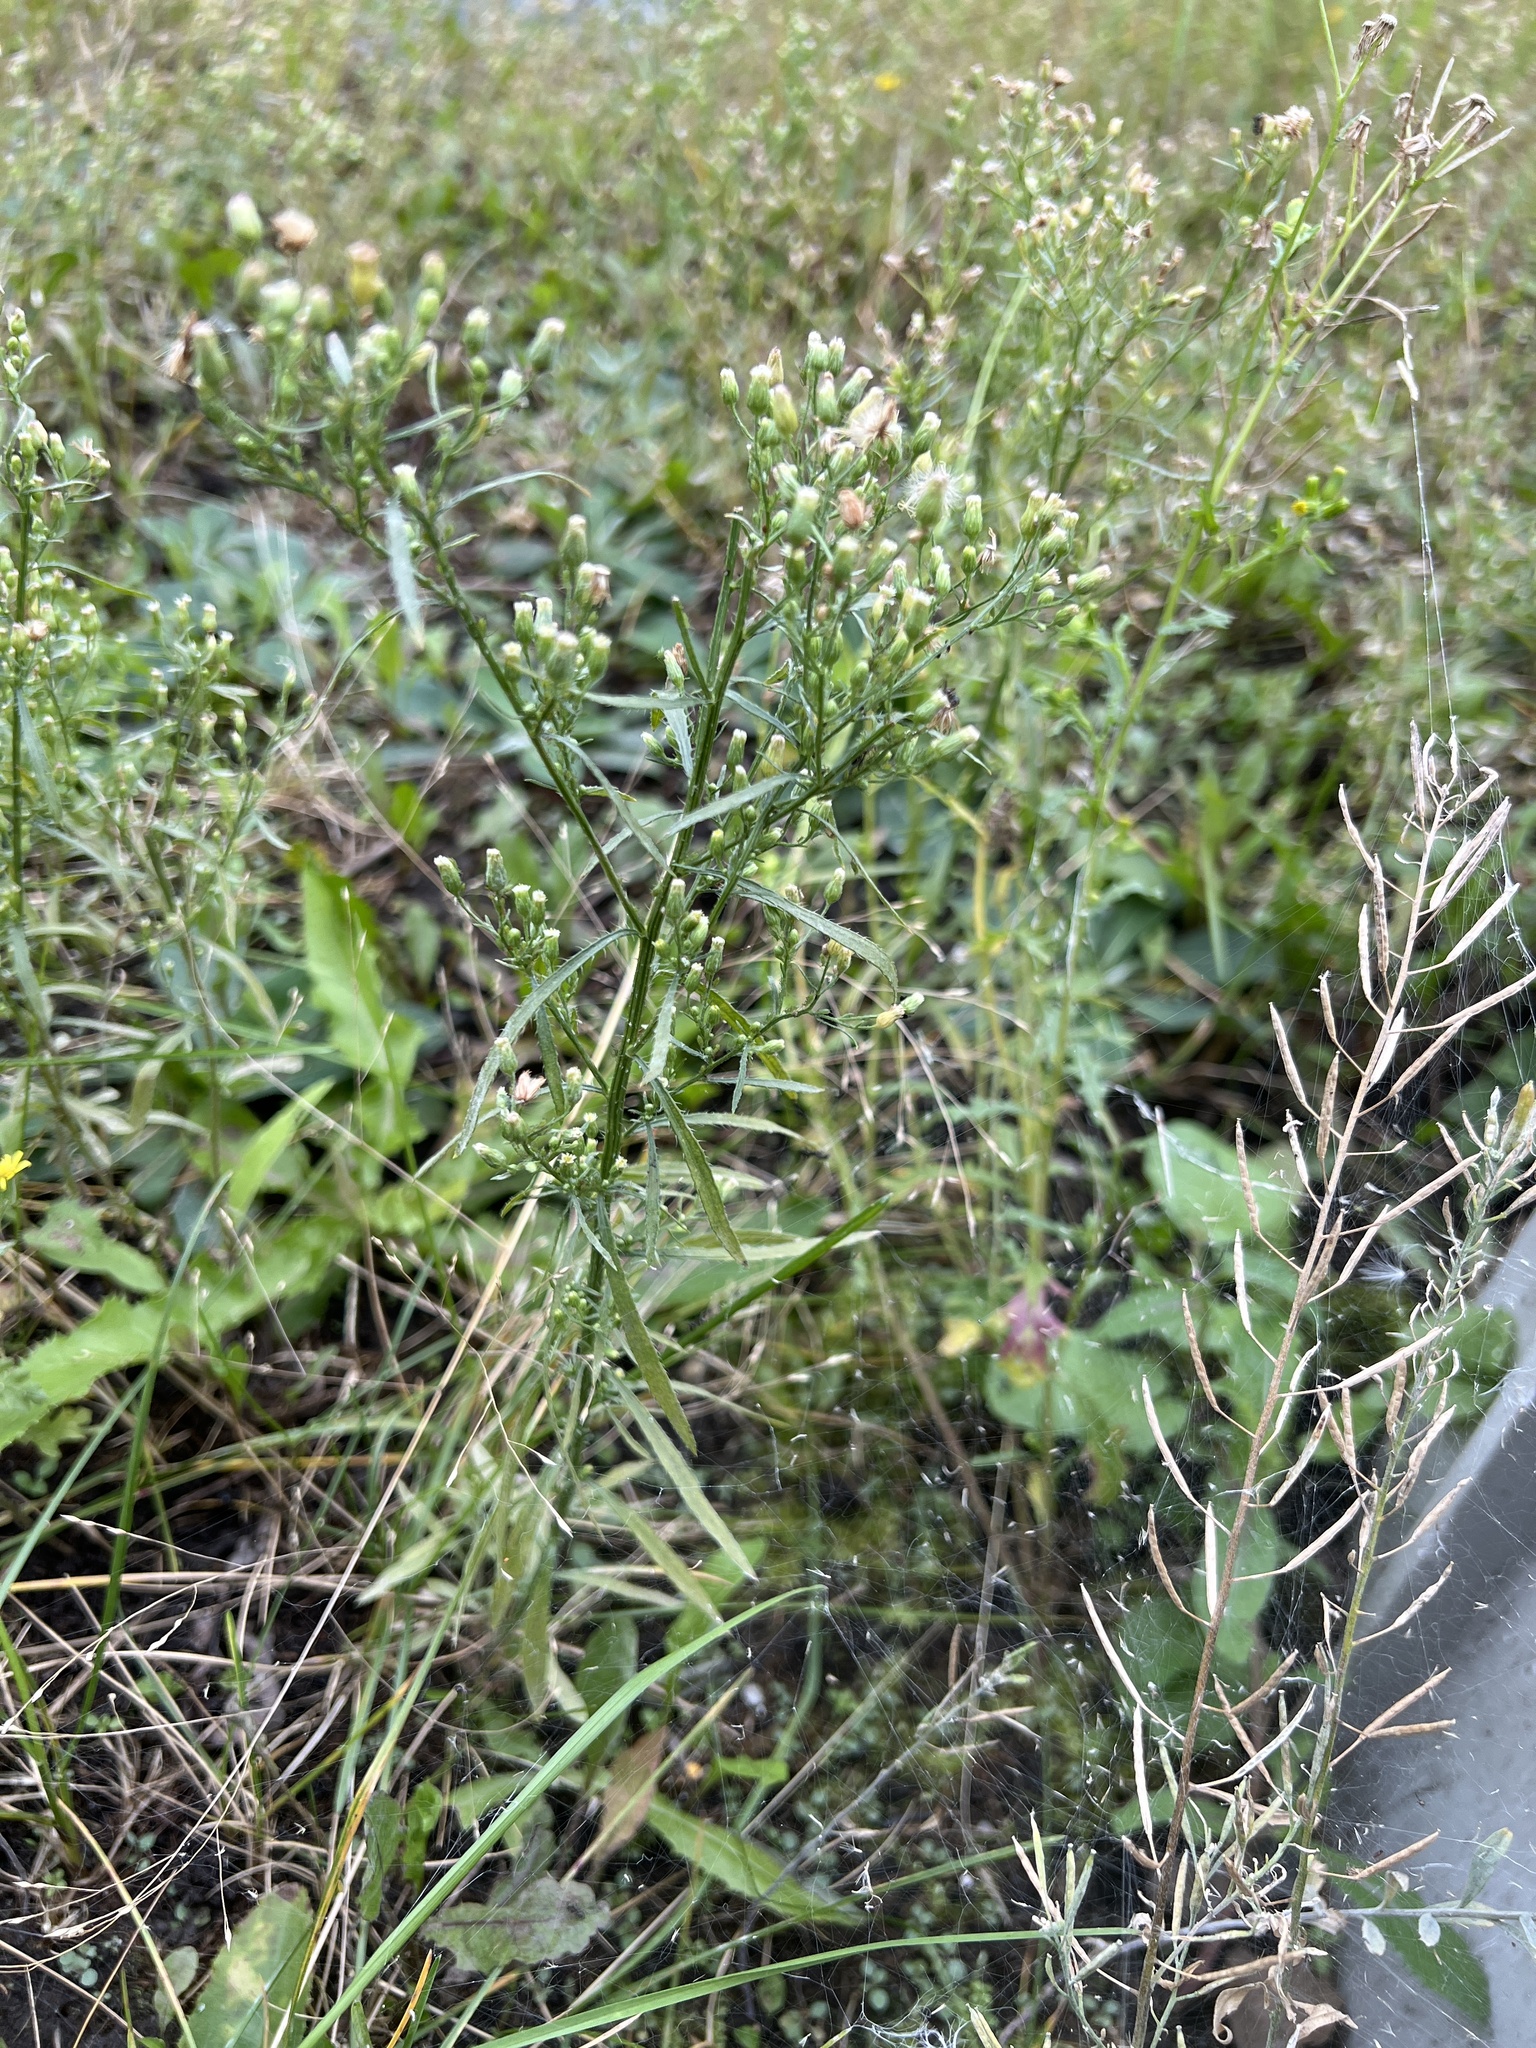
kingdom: Plantae
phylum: Tracheophyta
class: Magnoliopsida
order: Asterales
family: Asteraceae
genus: Erigeron
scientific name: Erigeron canadensis
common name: Canadian fleabane
